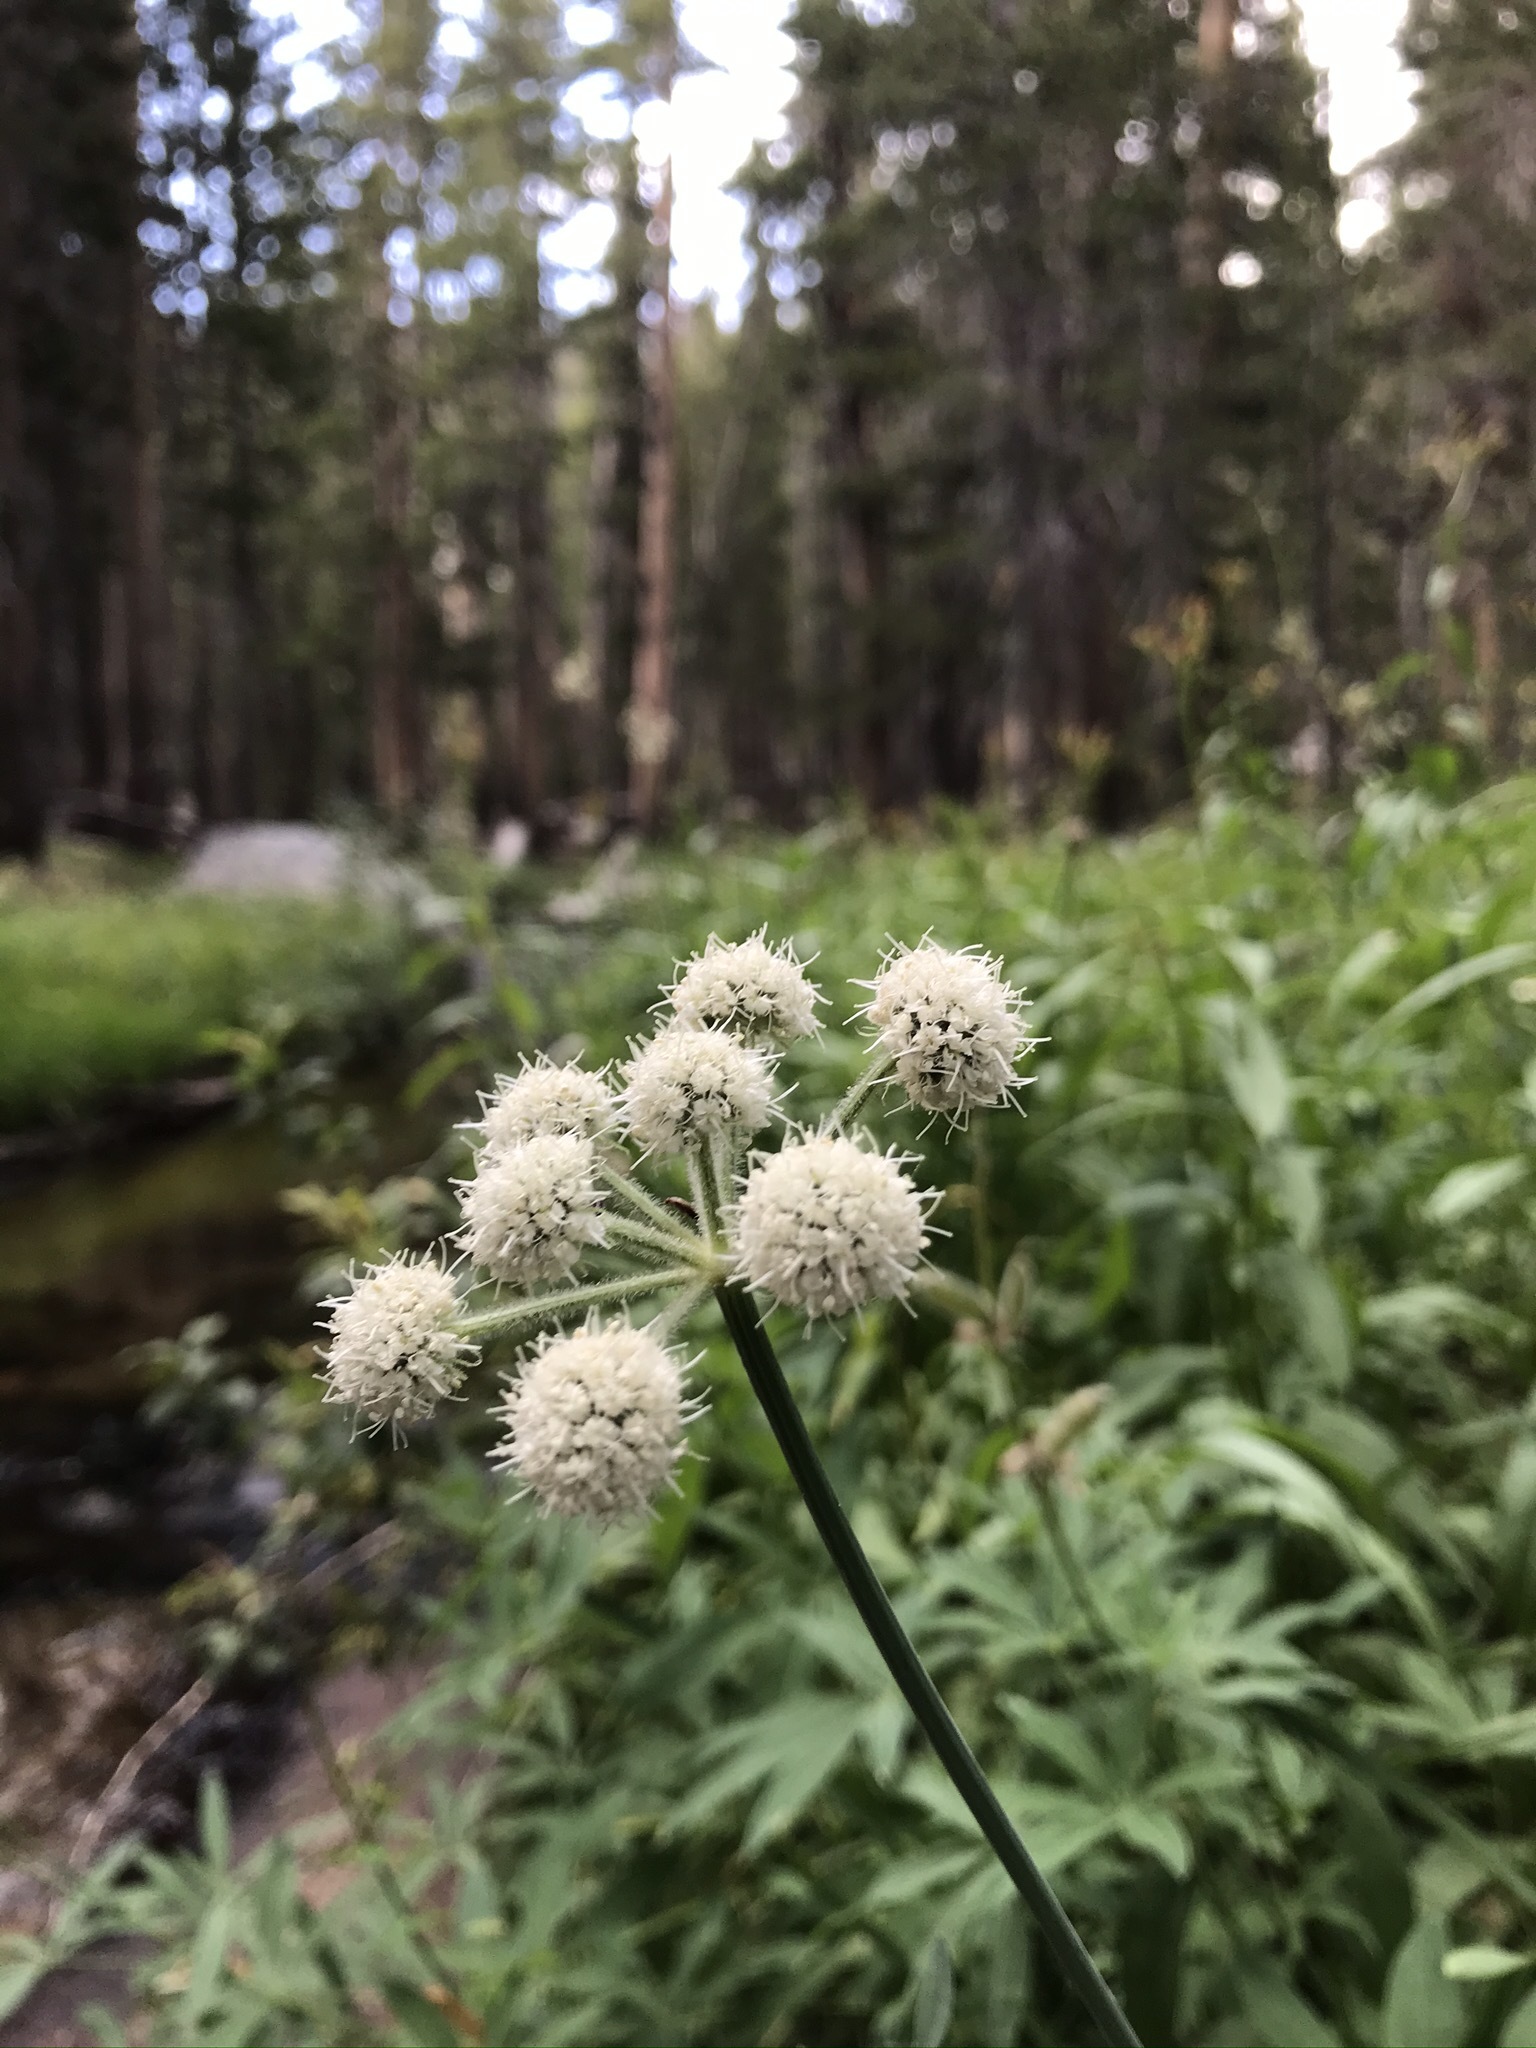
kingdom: Plantae
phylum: Tracheophyta
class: Magnoliopsida
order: Apiales
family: Apiaceae
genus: Angelica
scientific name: Angelica capitellata
